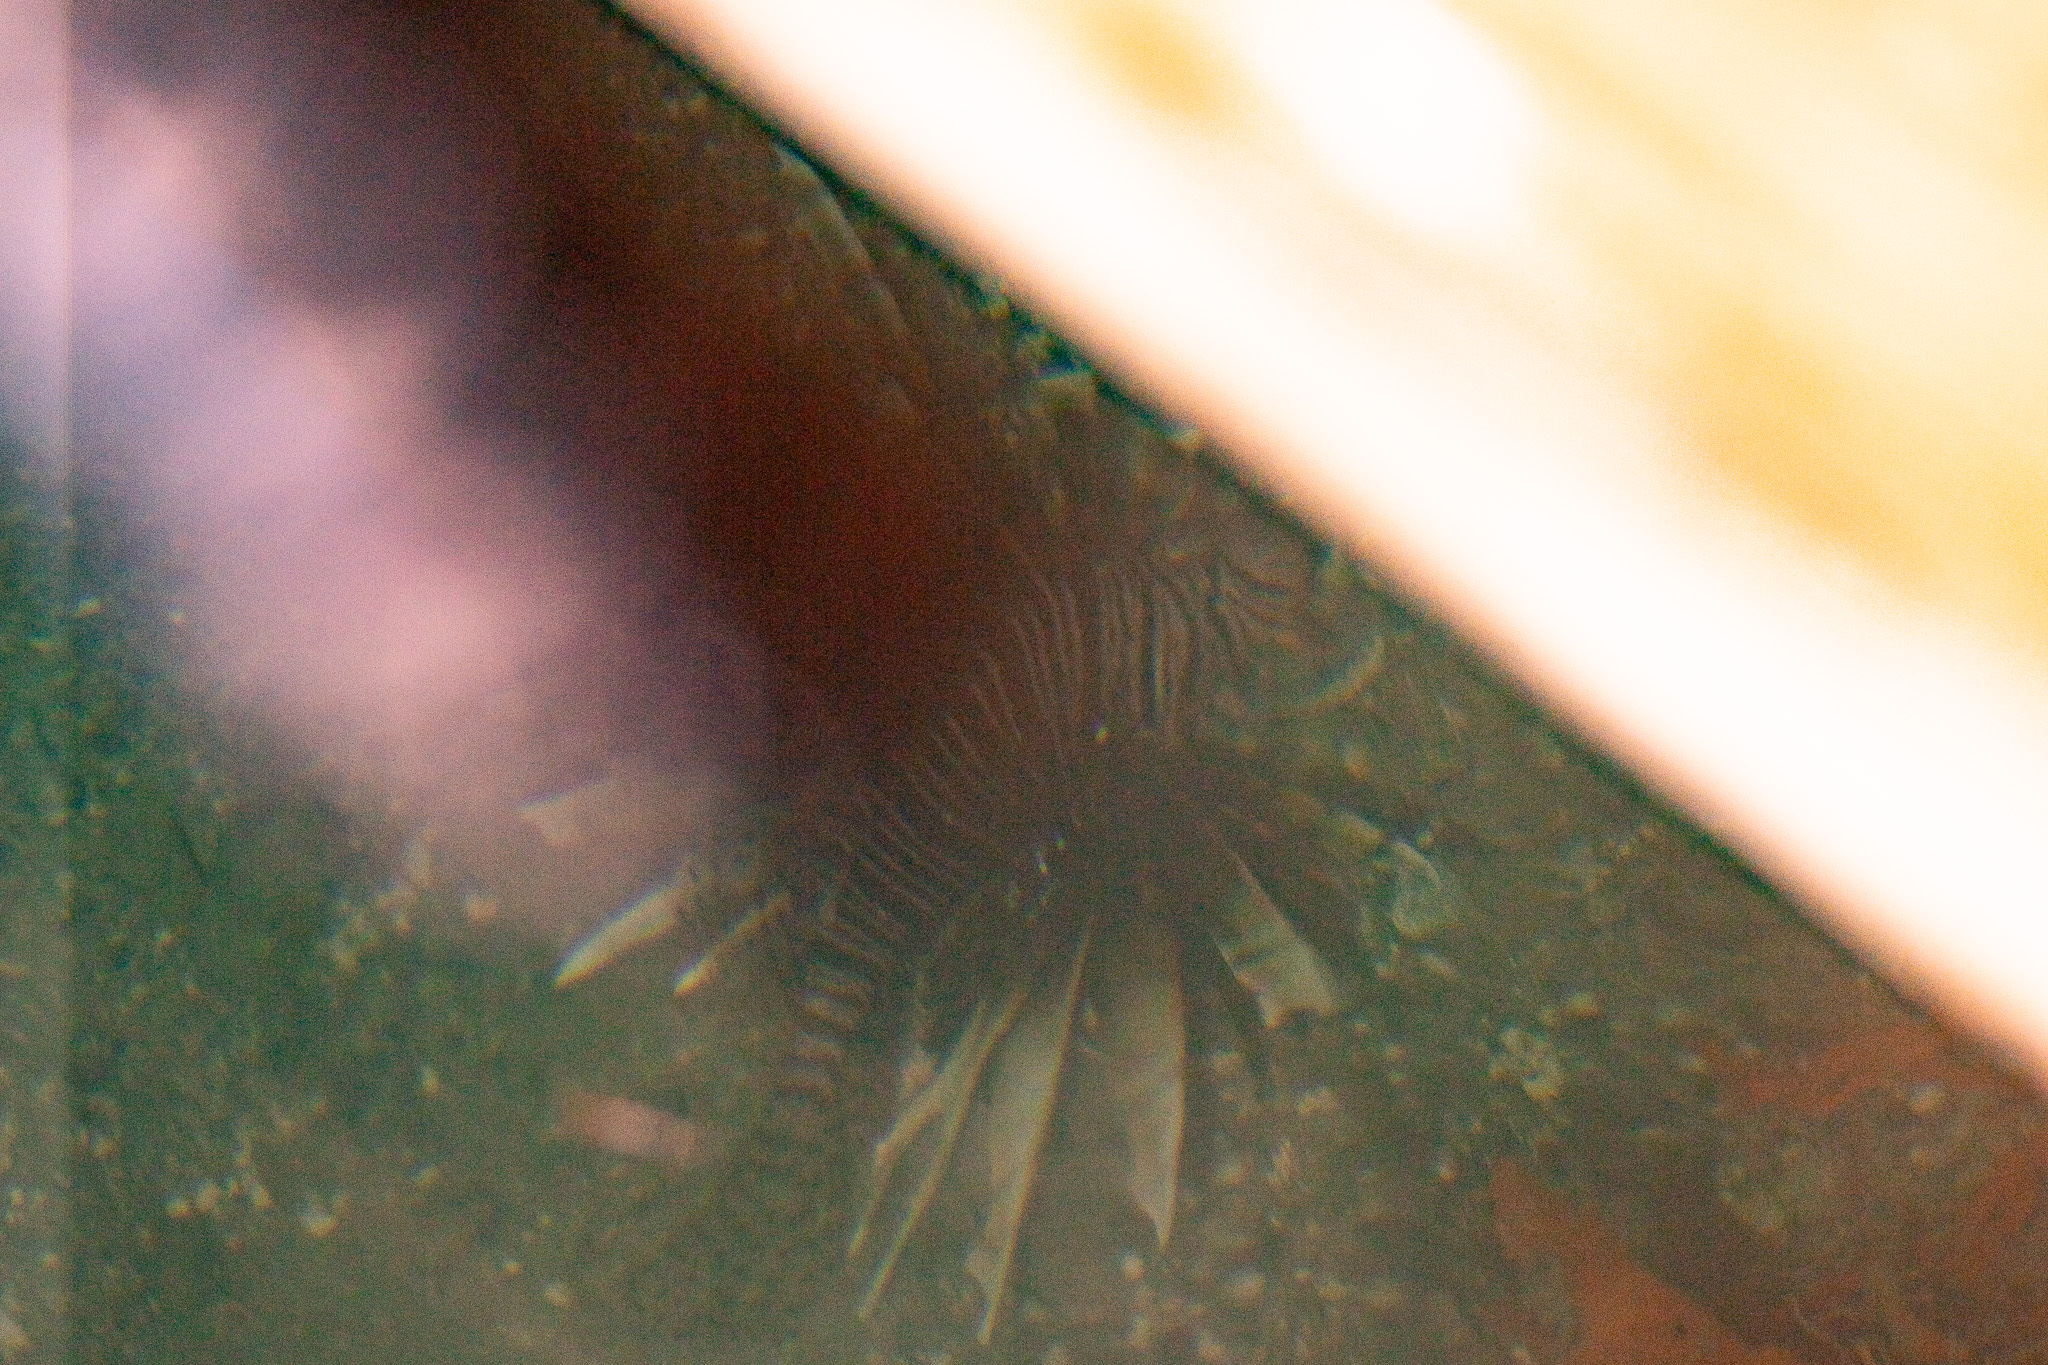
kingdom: Animalia
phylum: Chordata
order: Scorpaeniformes
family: Scorpaenidae
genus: Pterois
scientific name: Pterois volitans
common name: Lionfish
